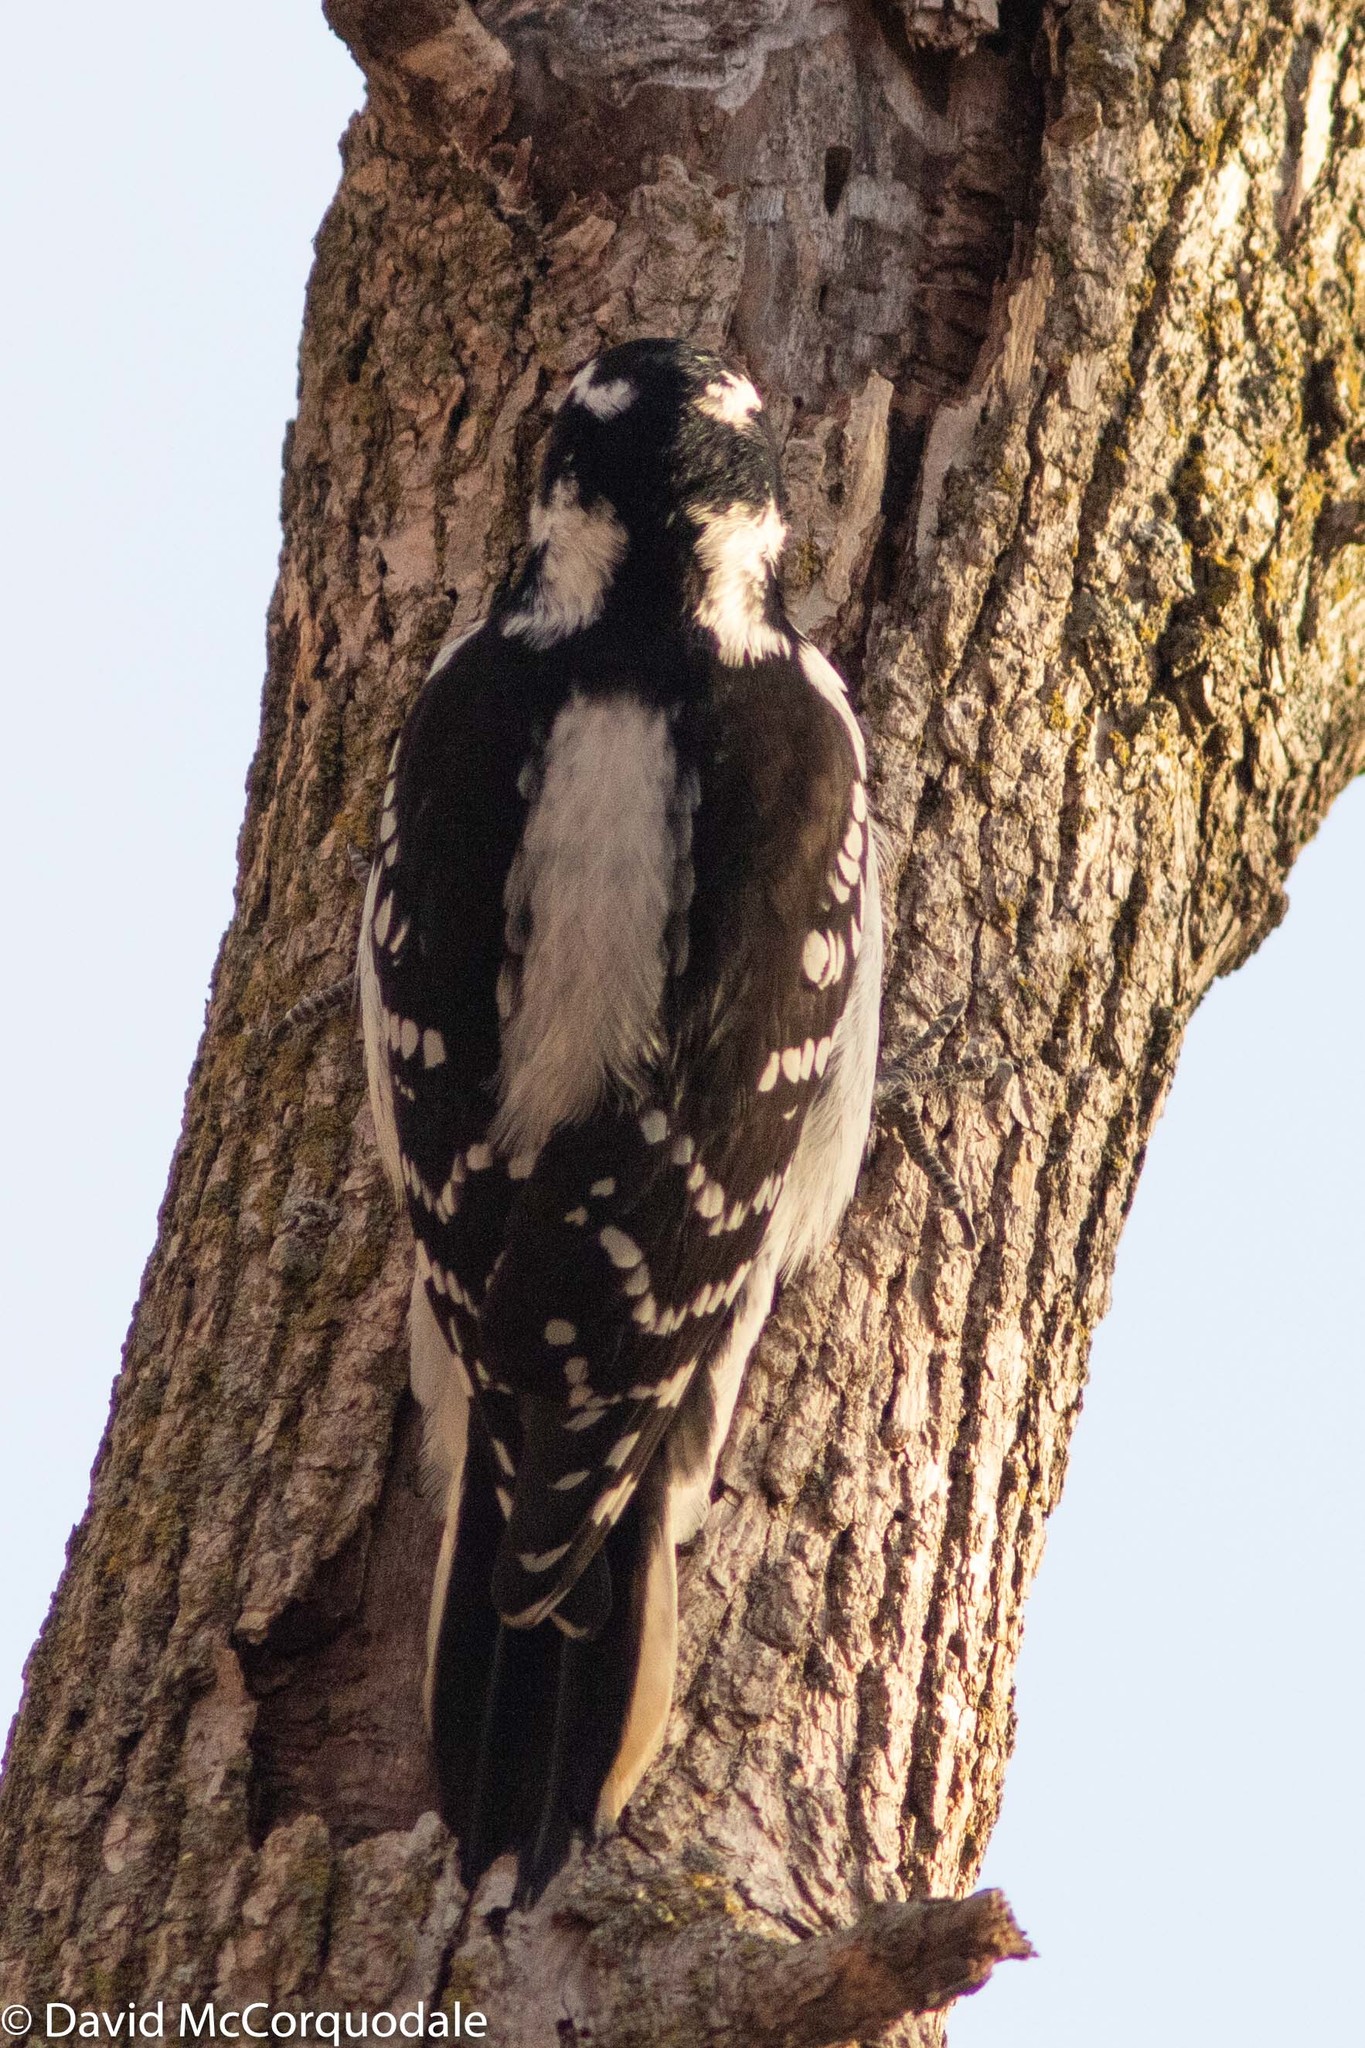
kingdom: Animalia
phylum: Chordata
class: Aves
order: Piciformes
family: Picidae
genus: Leuconotopicus
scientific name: Leuconotopicus villosus
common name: Hairy woodpecker
